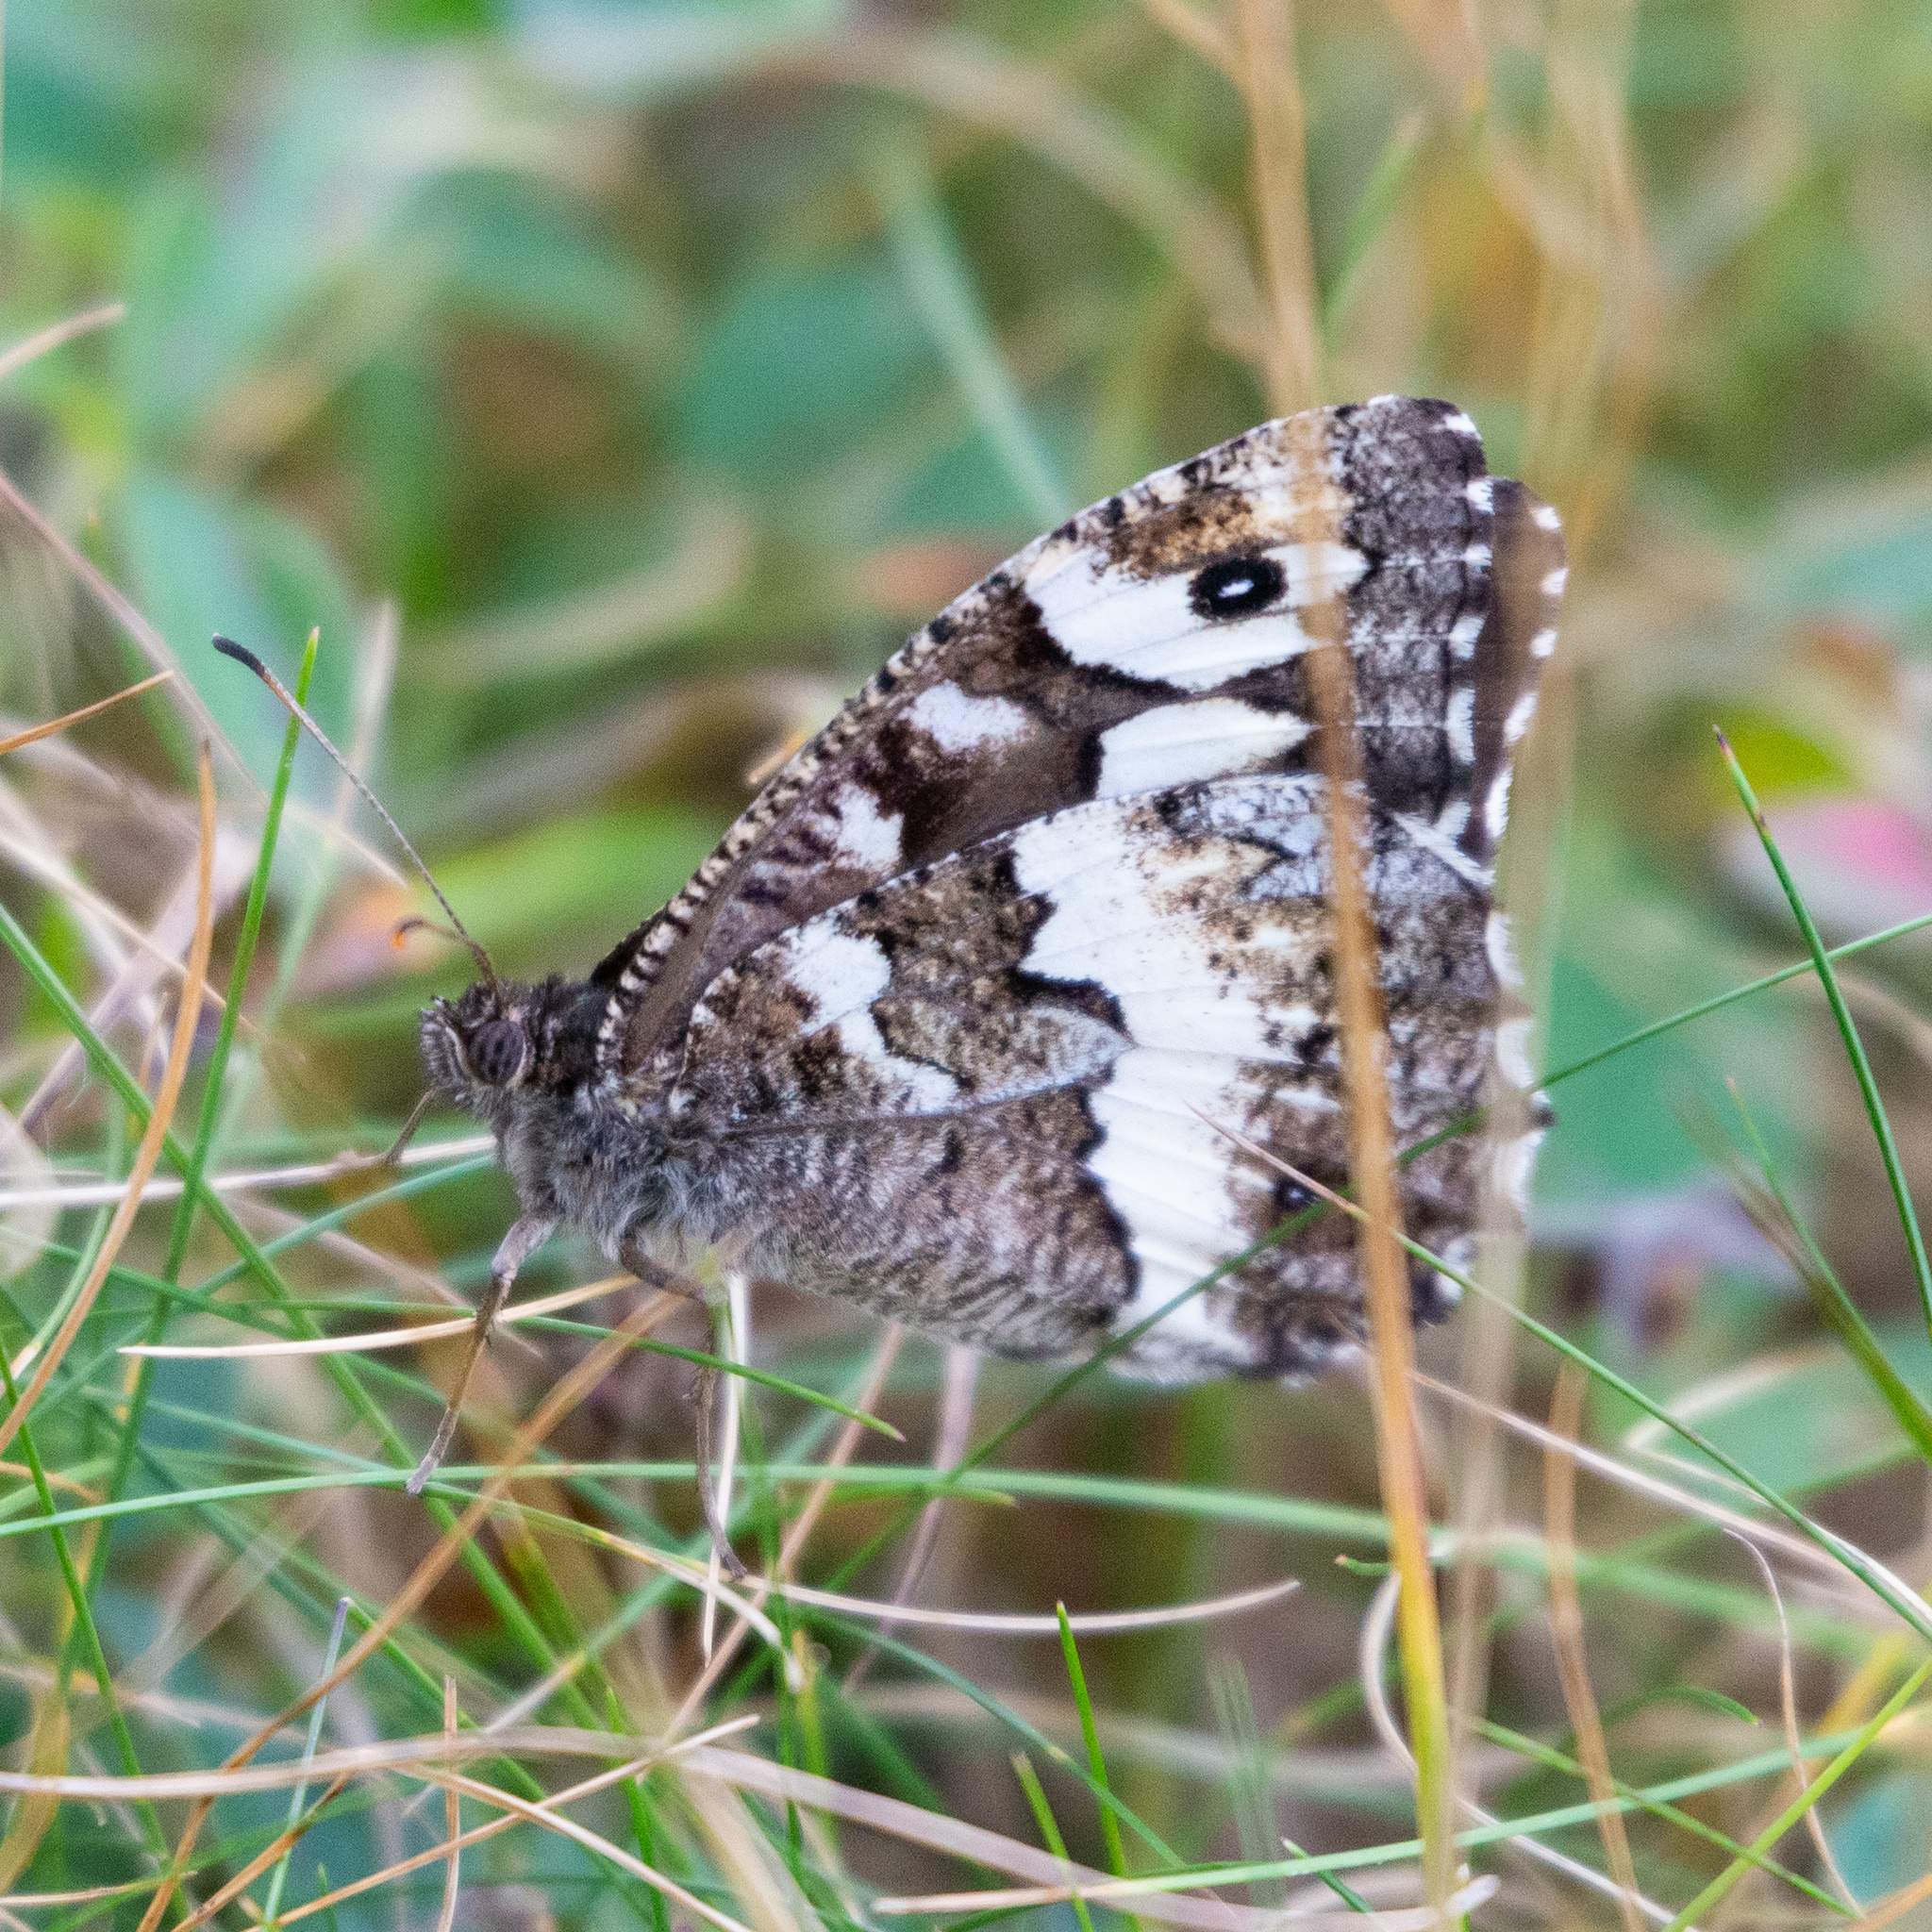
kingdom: Animalia
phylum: Arthropoda
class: Insecta
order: Lepidoptera
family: Lycaenidae
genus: Loweia
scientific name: Loweia tityrus
